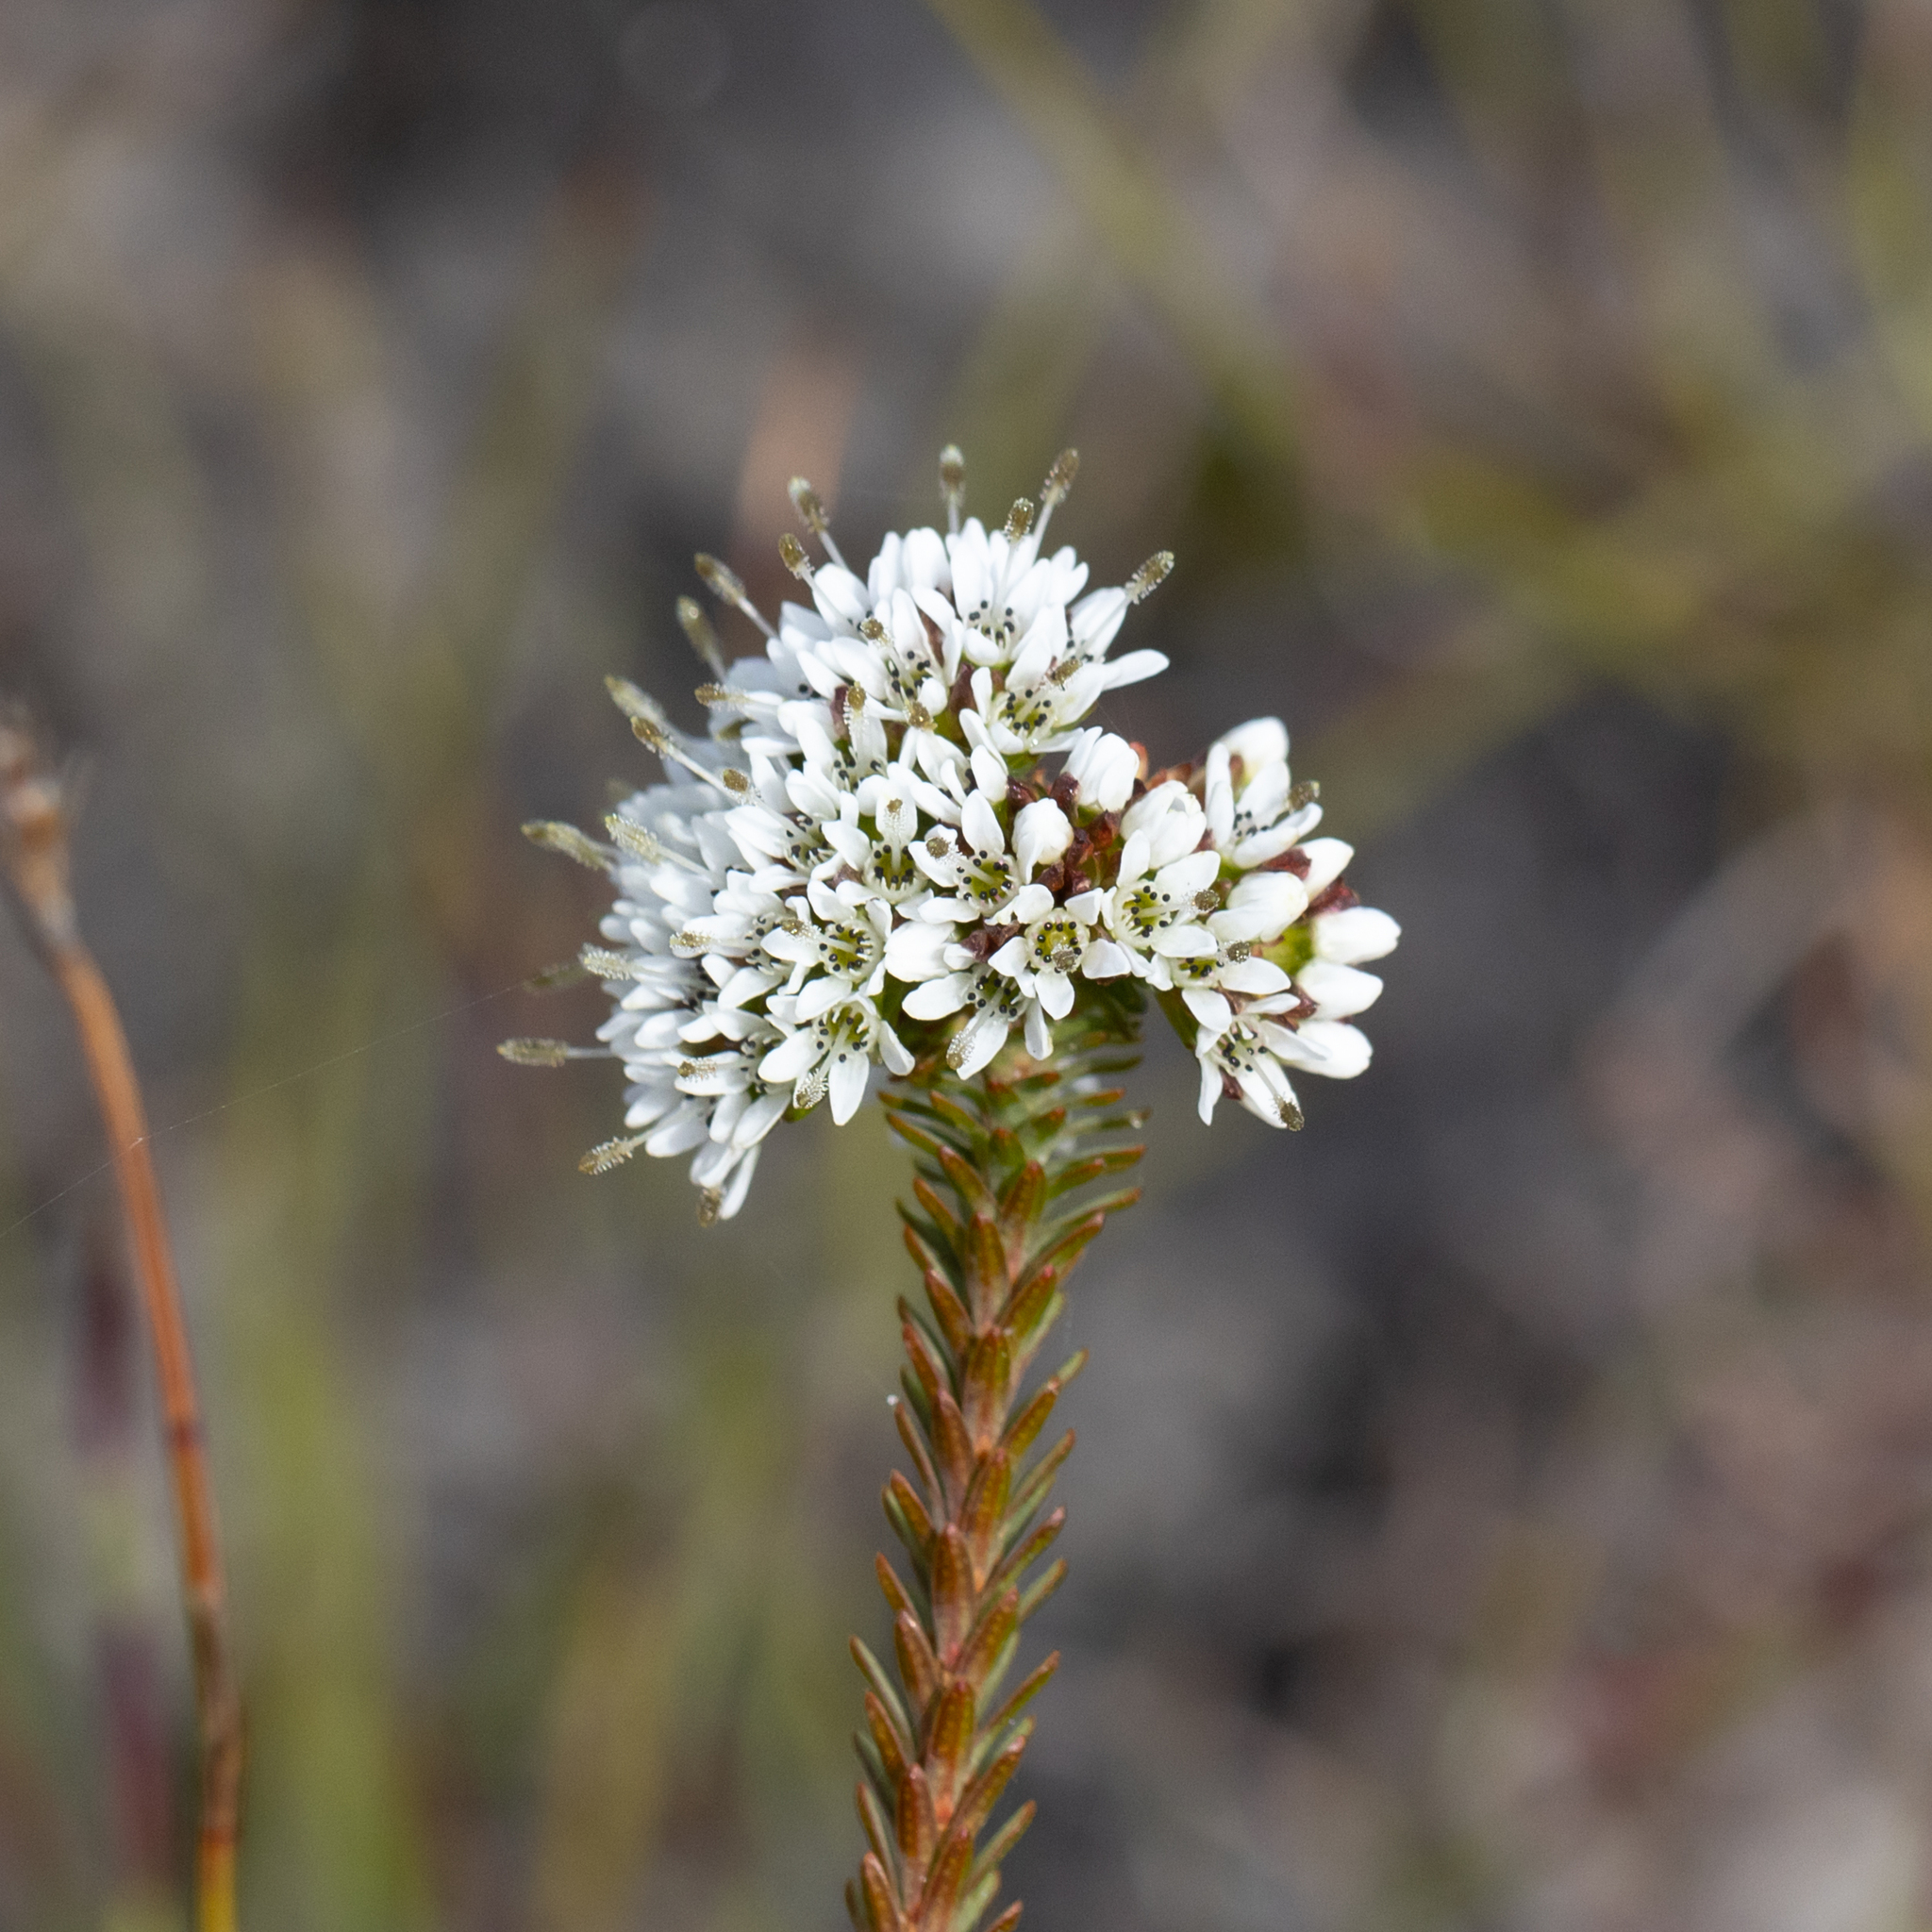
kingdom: Plantae
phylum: Tracheophyta
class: Magnoliopsida
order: Myrtales
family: Myrtaceae
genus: Darwinia
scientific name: Darwinia vestita
